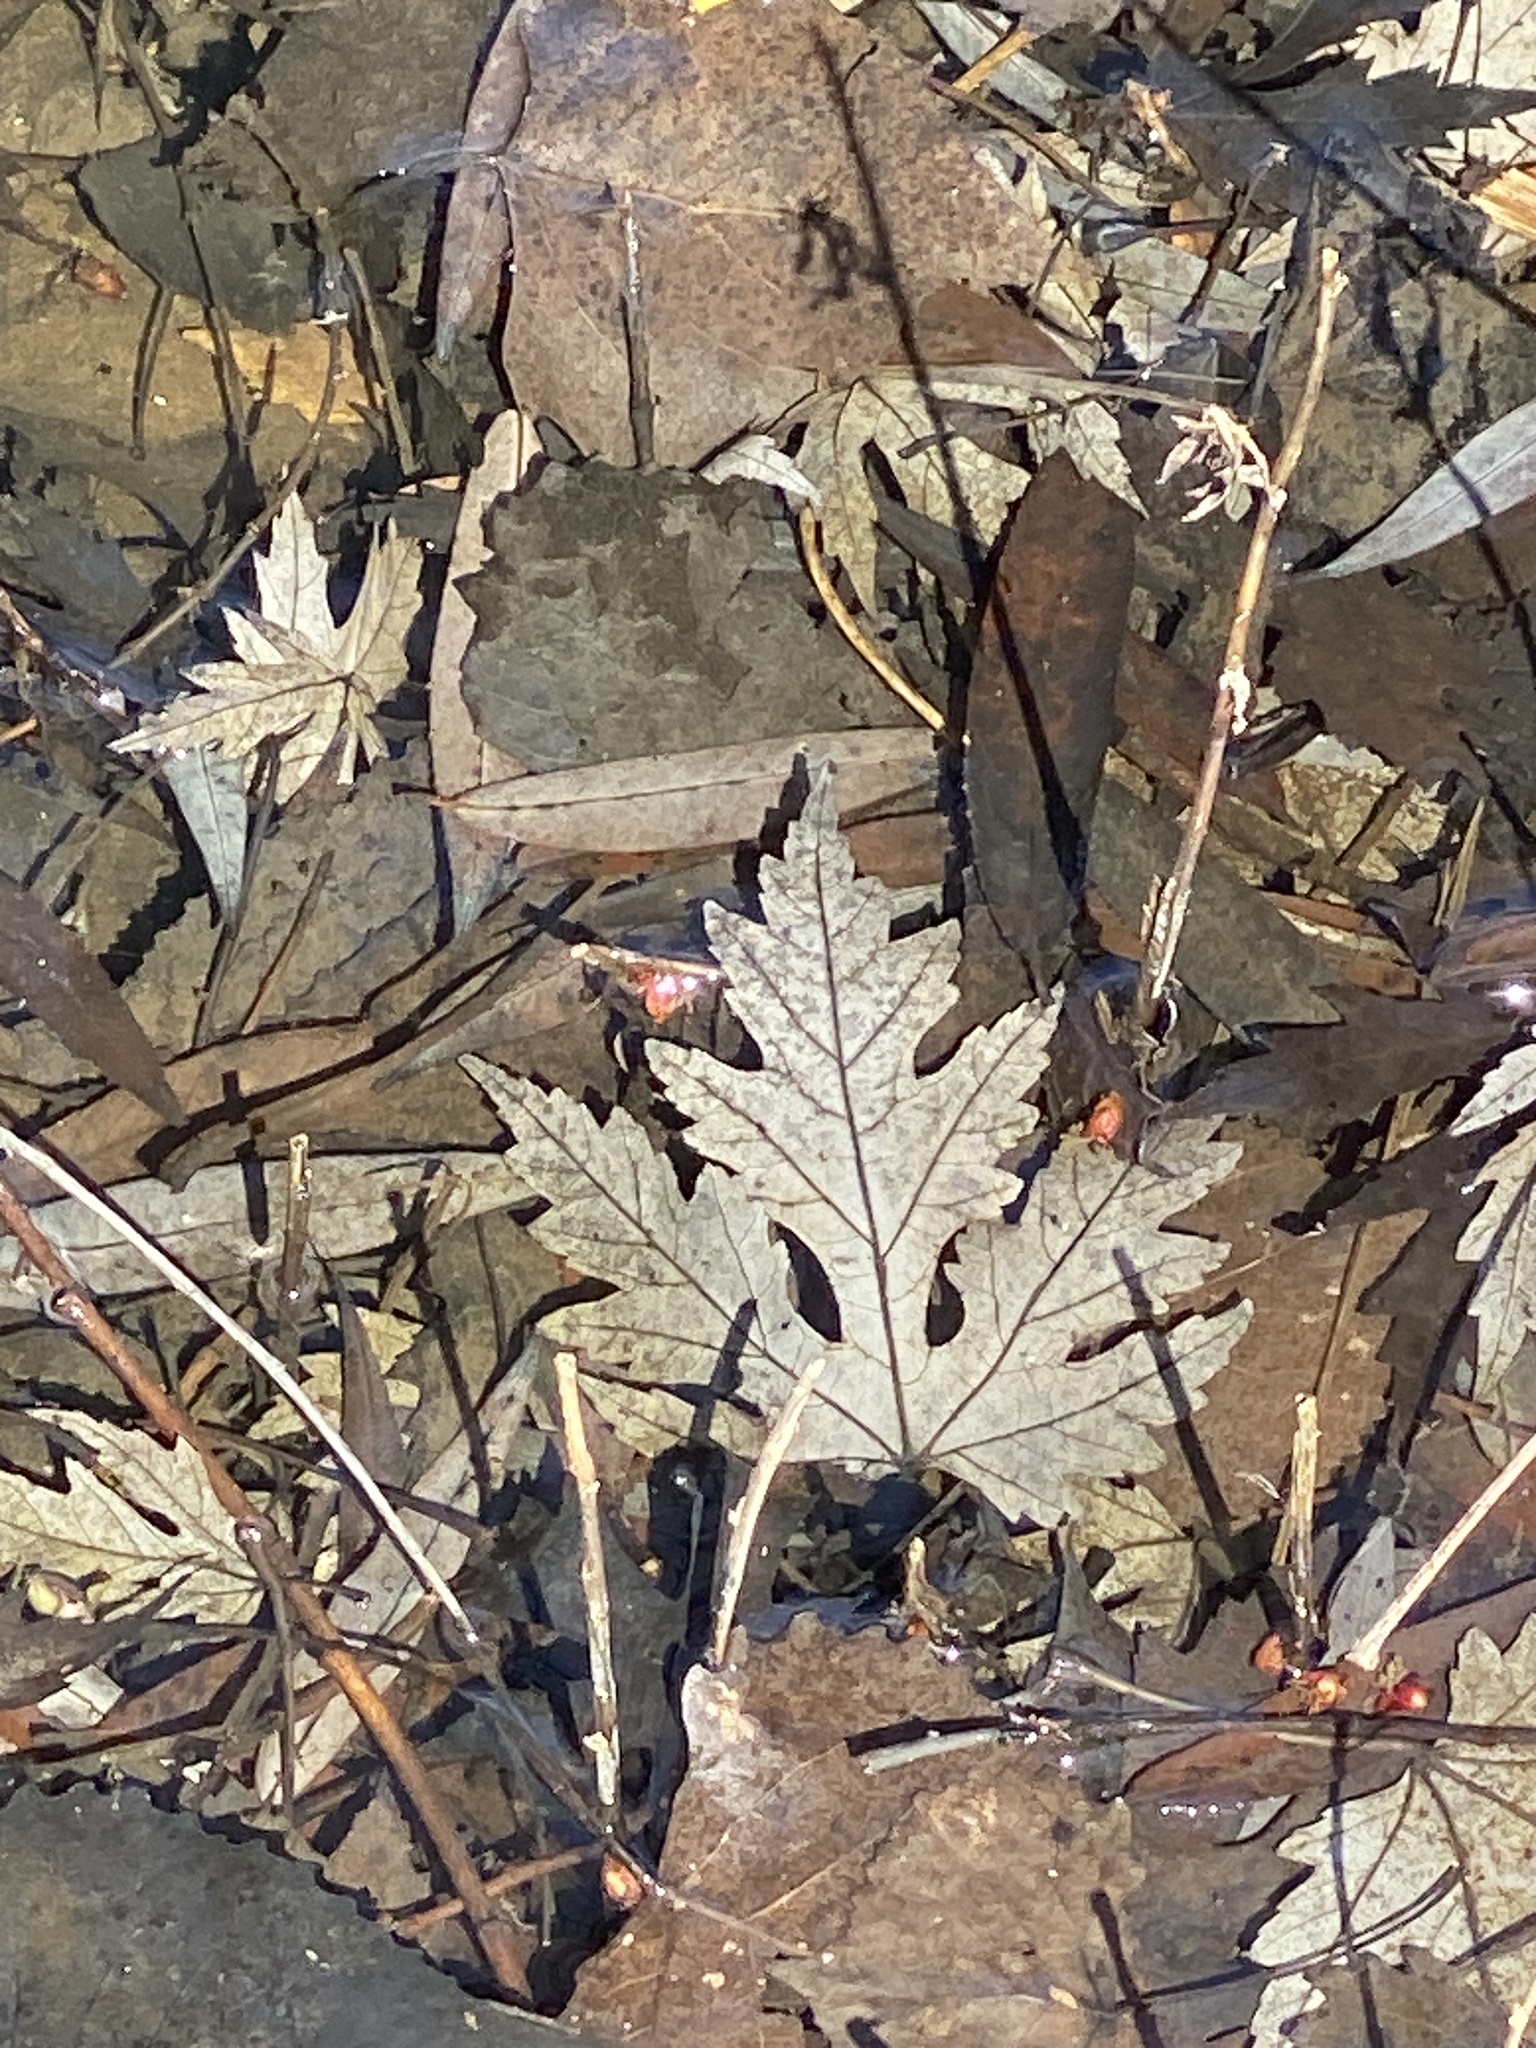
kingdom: Plantae
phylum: Tracheophyta
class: Magnoliopsida
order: Sapindales
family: Sapindaceae
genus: Acer
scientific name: Acer saccharinum
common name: Silver maple
